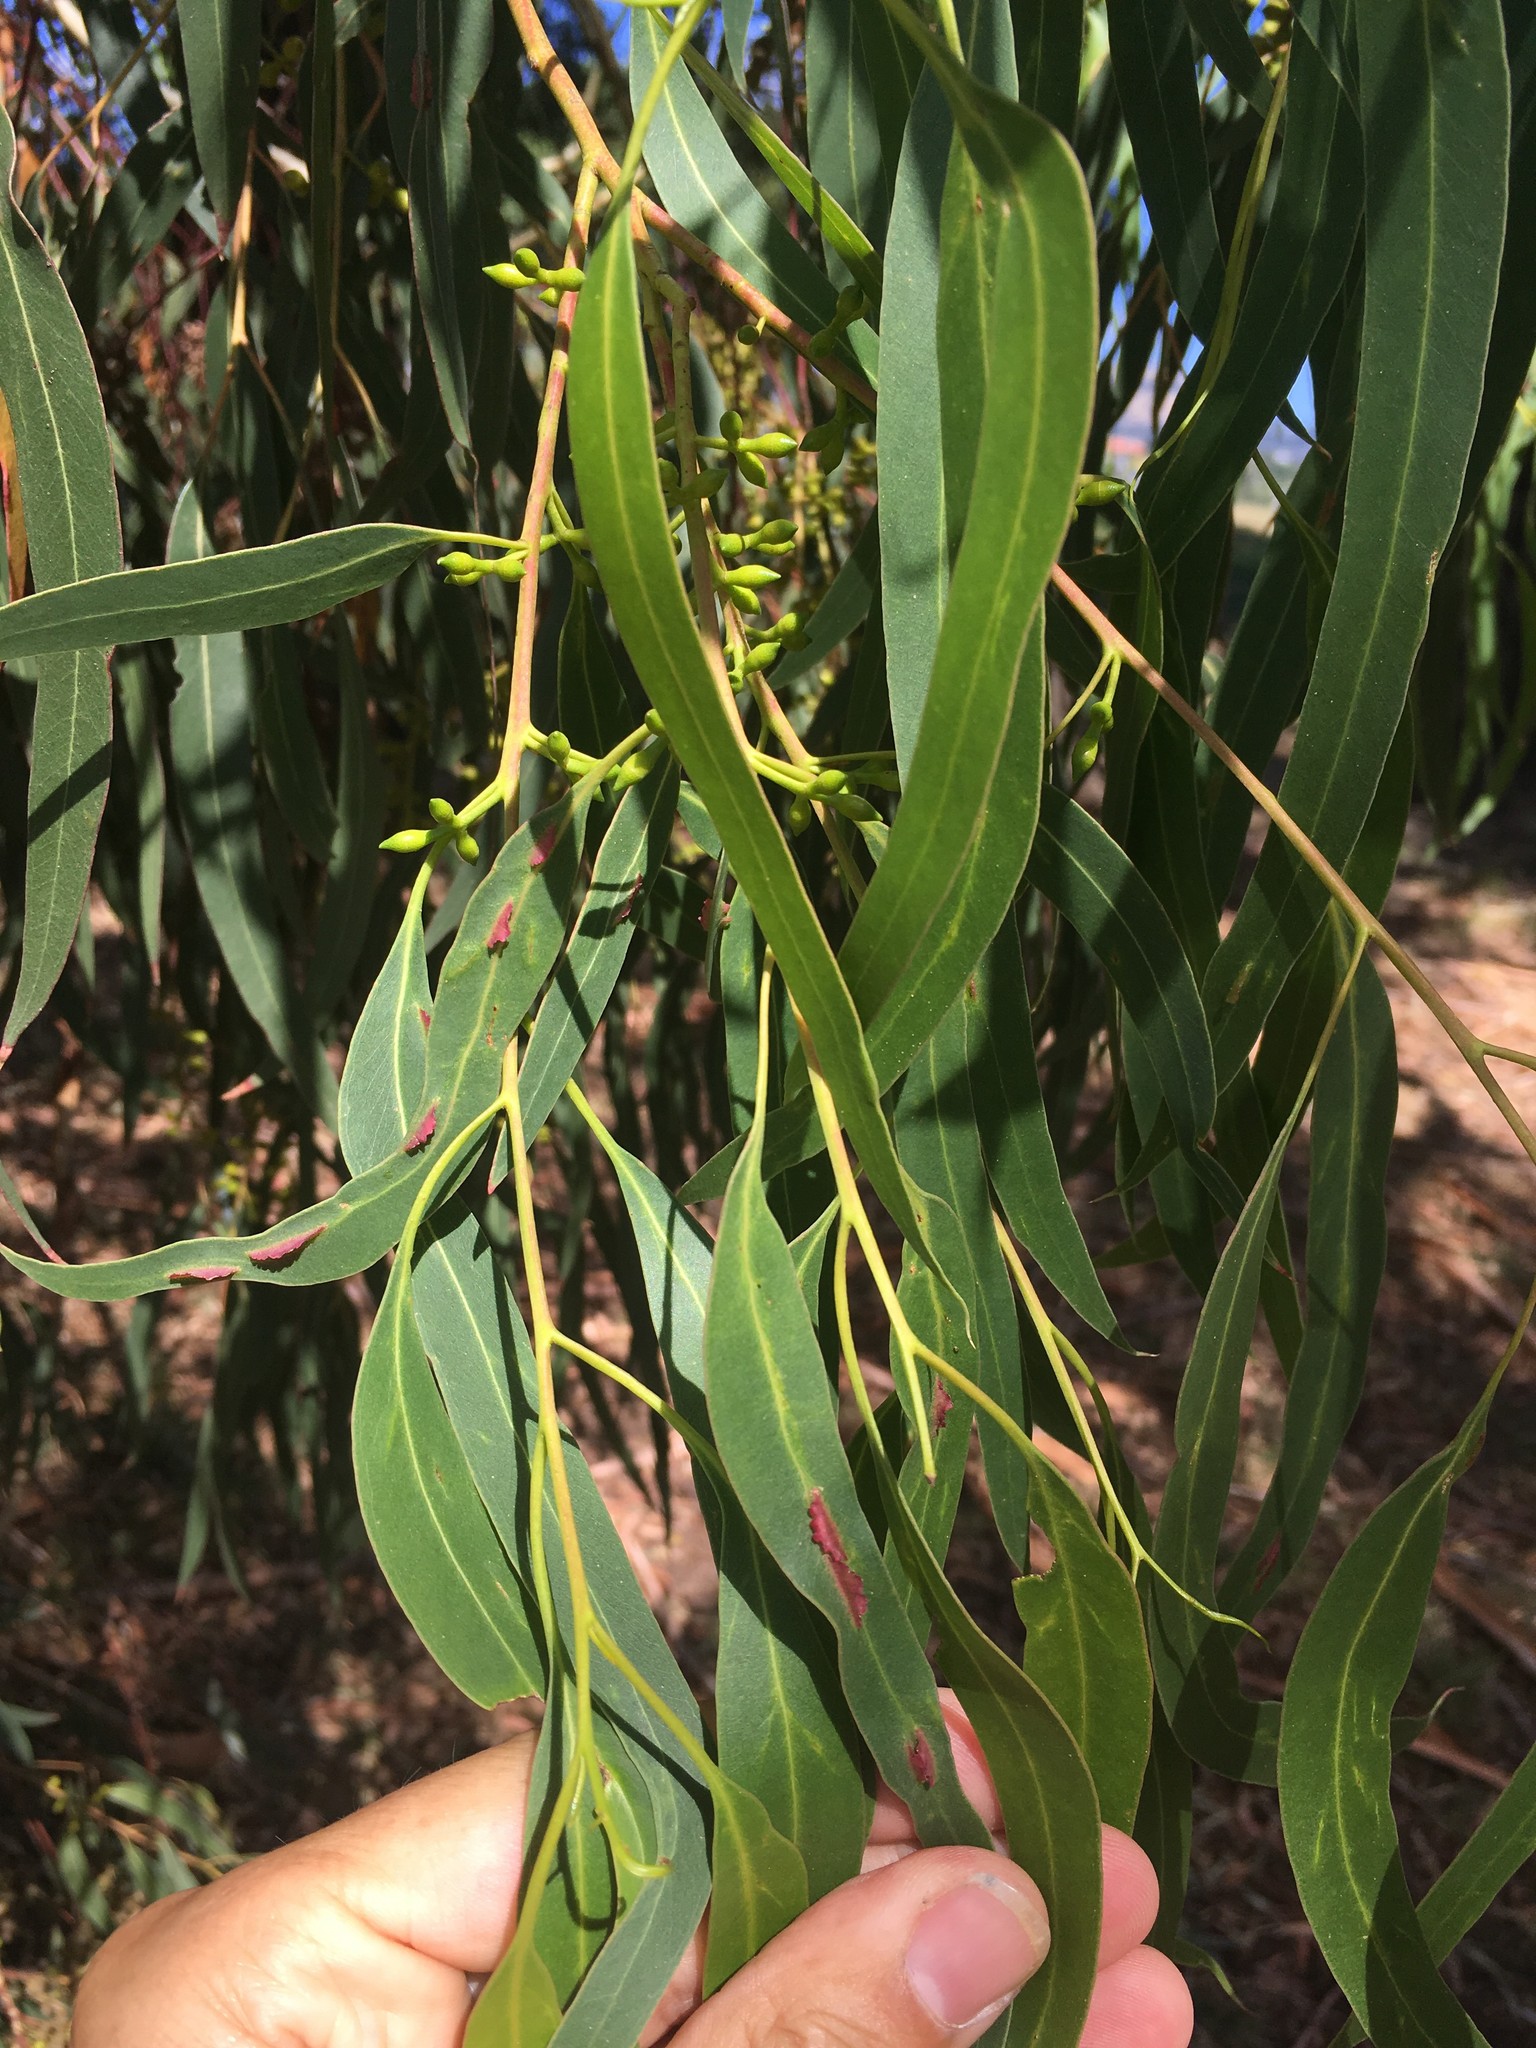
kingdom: Animalia
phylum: Arthropoda
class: Insecta
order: Hymenoptera
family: Pteromalidae
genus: Nambouria
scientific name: Nambouria xanthops
